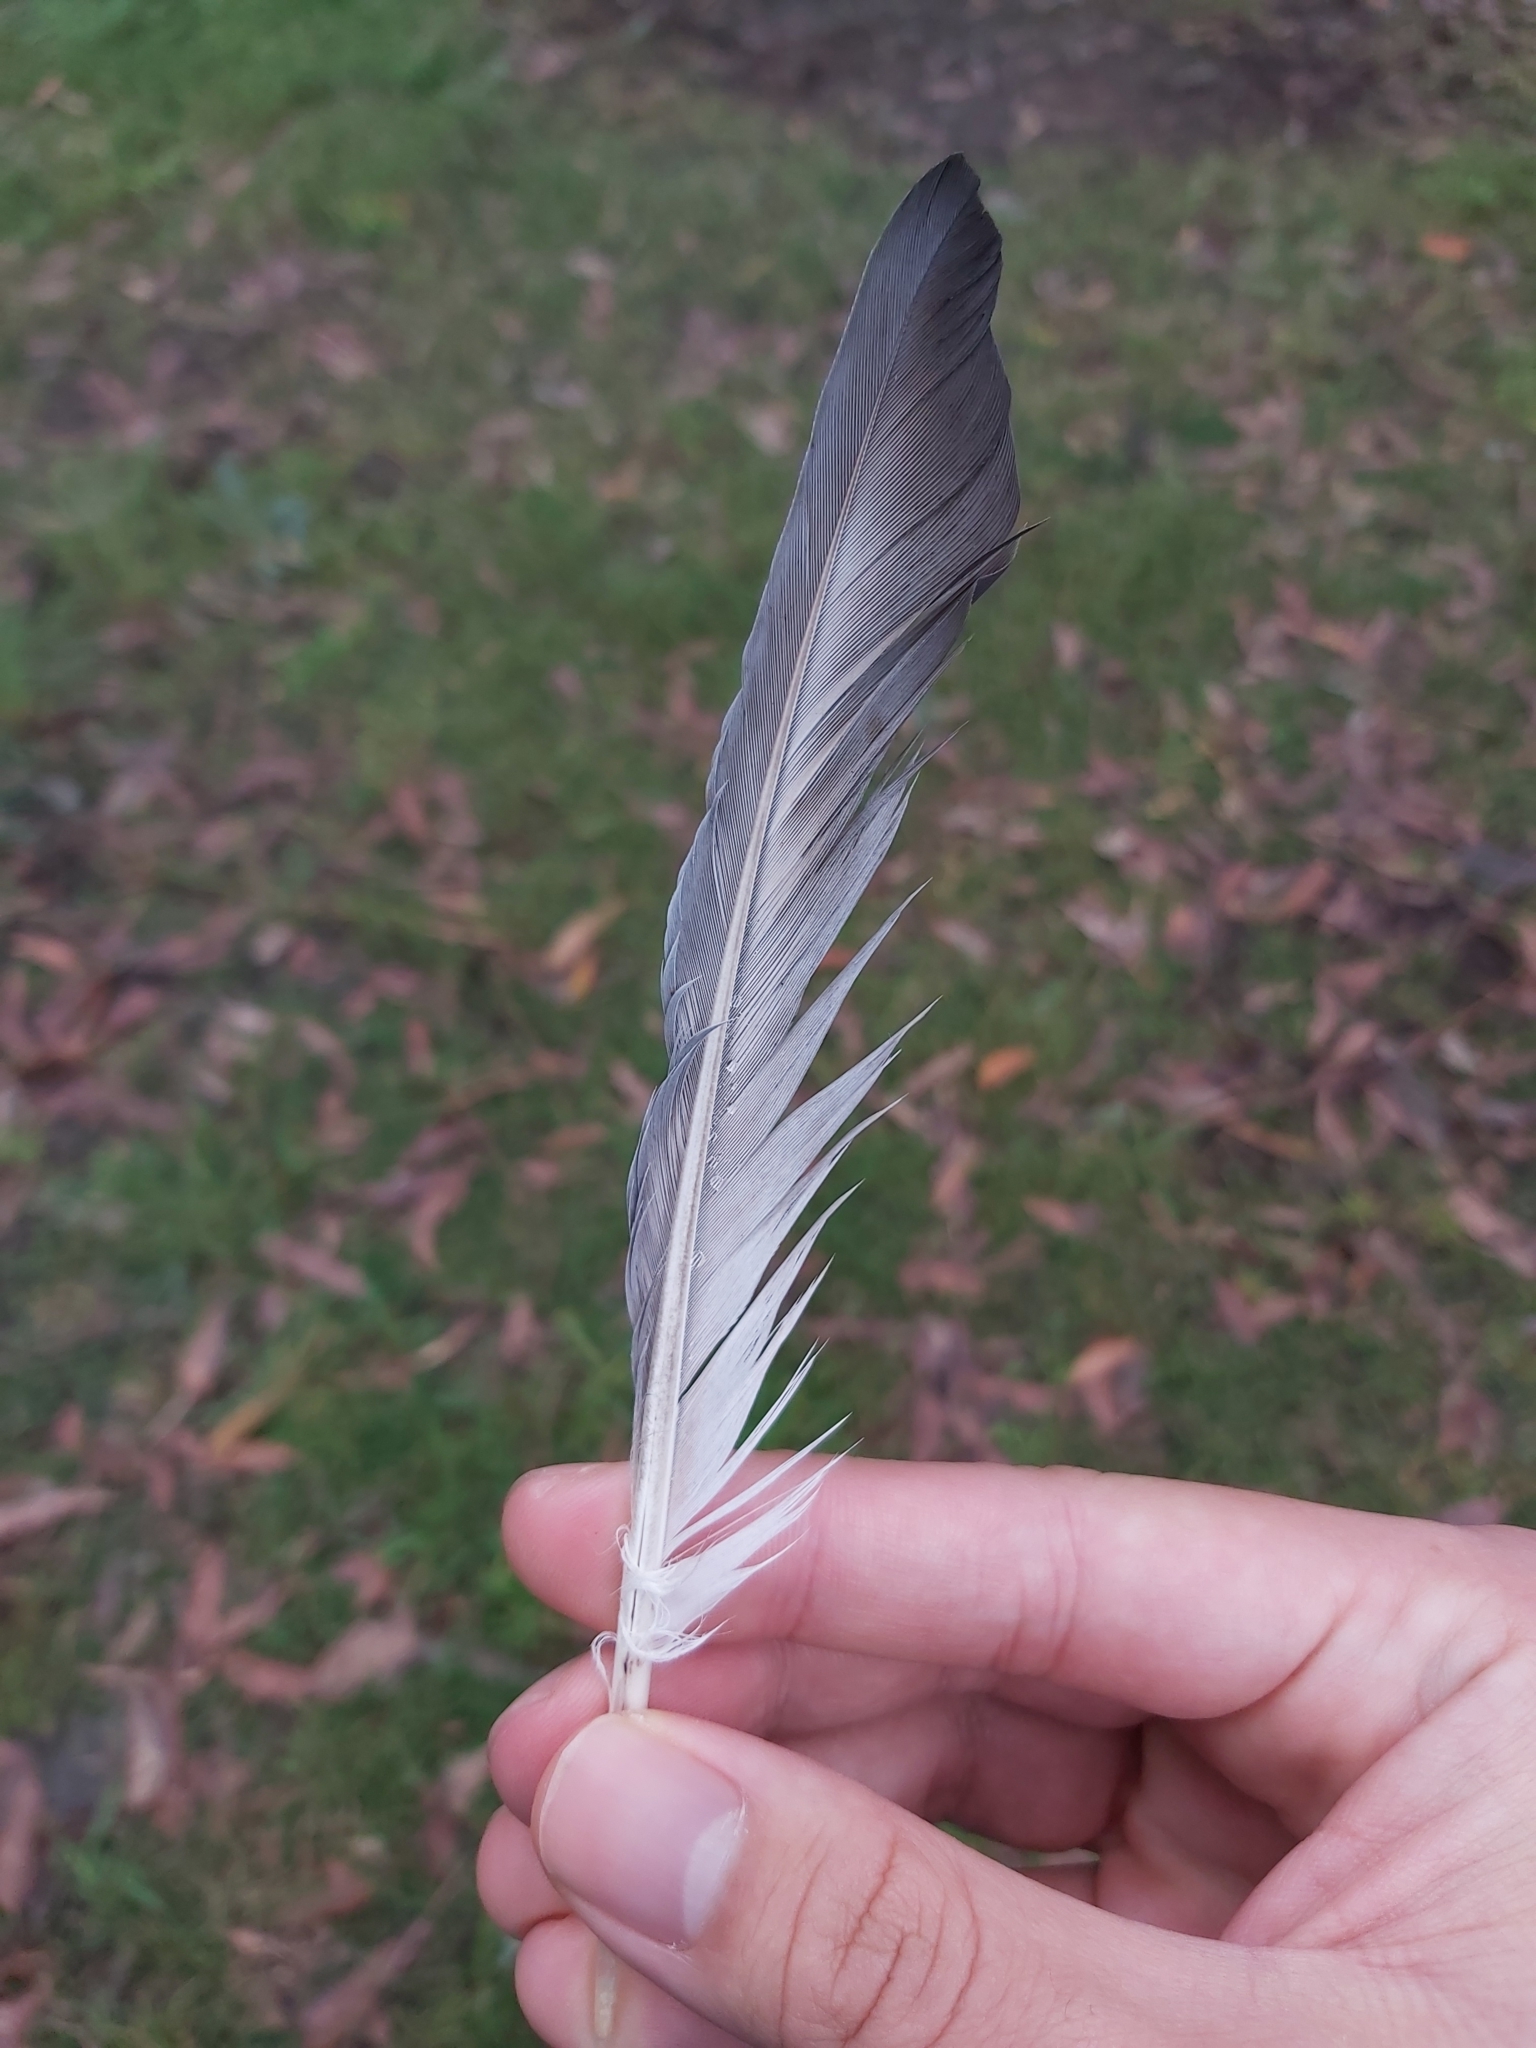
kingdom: Animalia
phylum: Chordata
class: Aves
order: Columbiformes
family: Columbidae
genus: Columba
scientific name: Columba livia
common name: Rock pigeon
